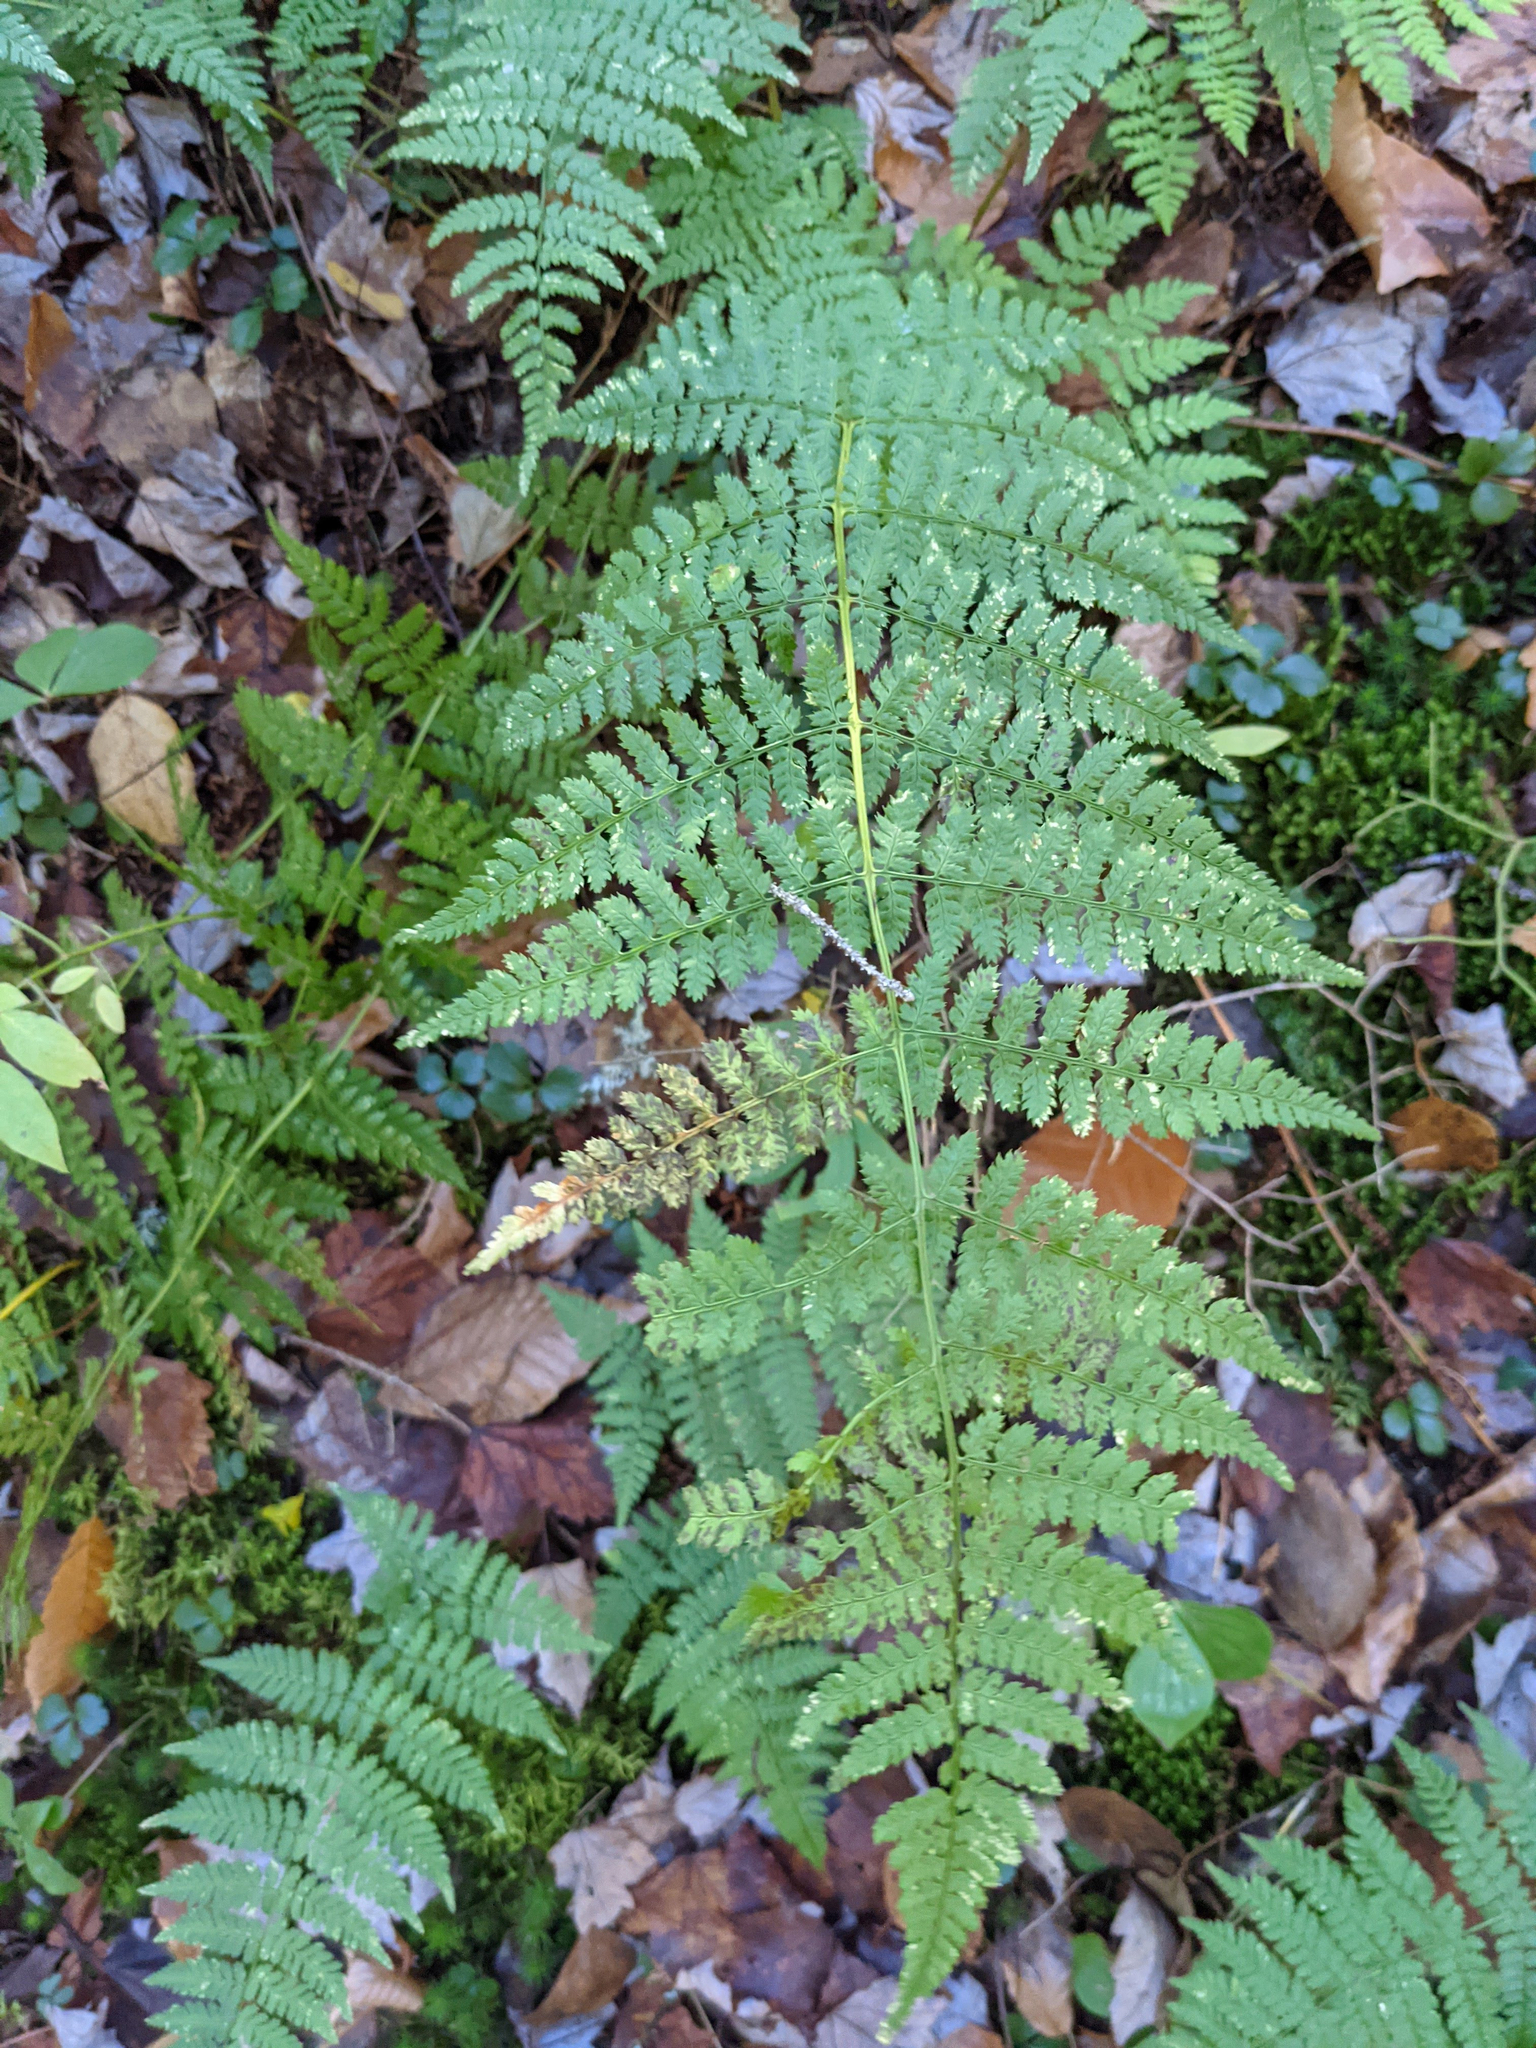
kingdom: Plantae
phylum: Tracheophyta
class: Polypodiopsida
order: Polypodiales
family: Dryopteridaceae
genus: Dryopteris
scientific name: Dryopteris intermedia
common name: Evergreen wood fern
